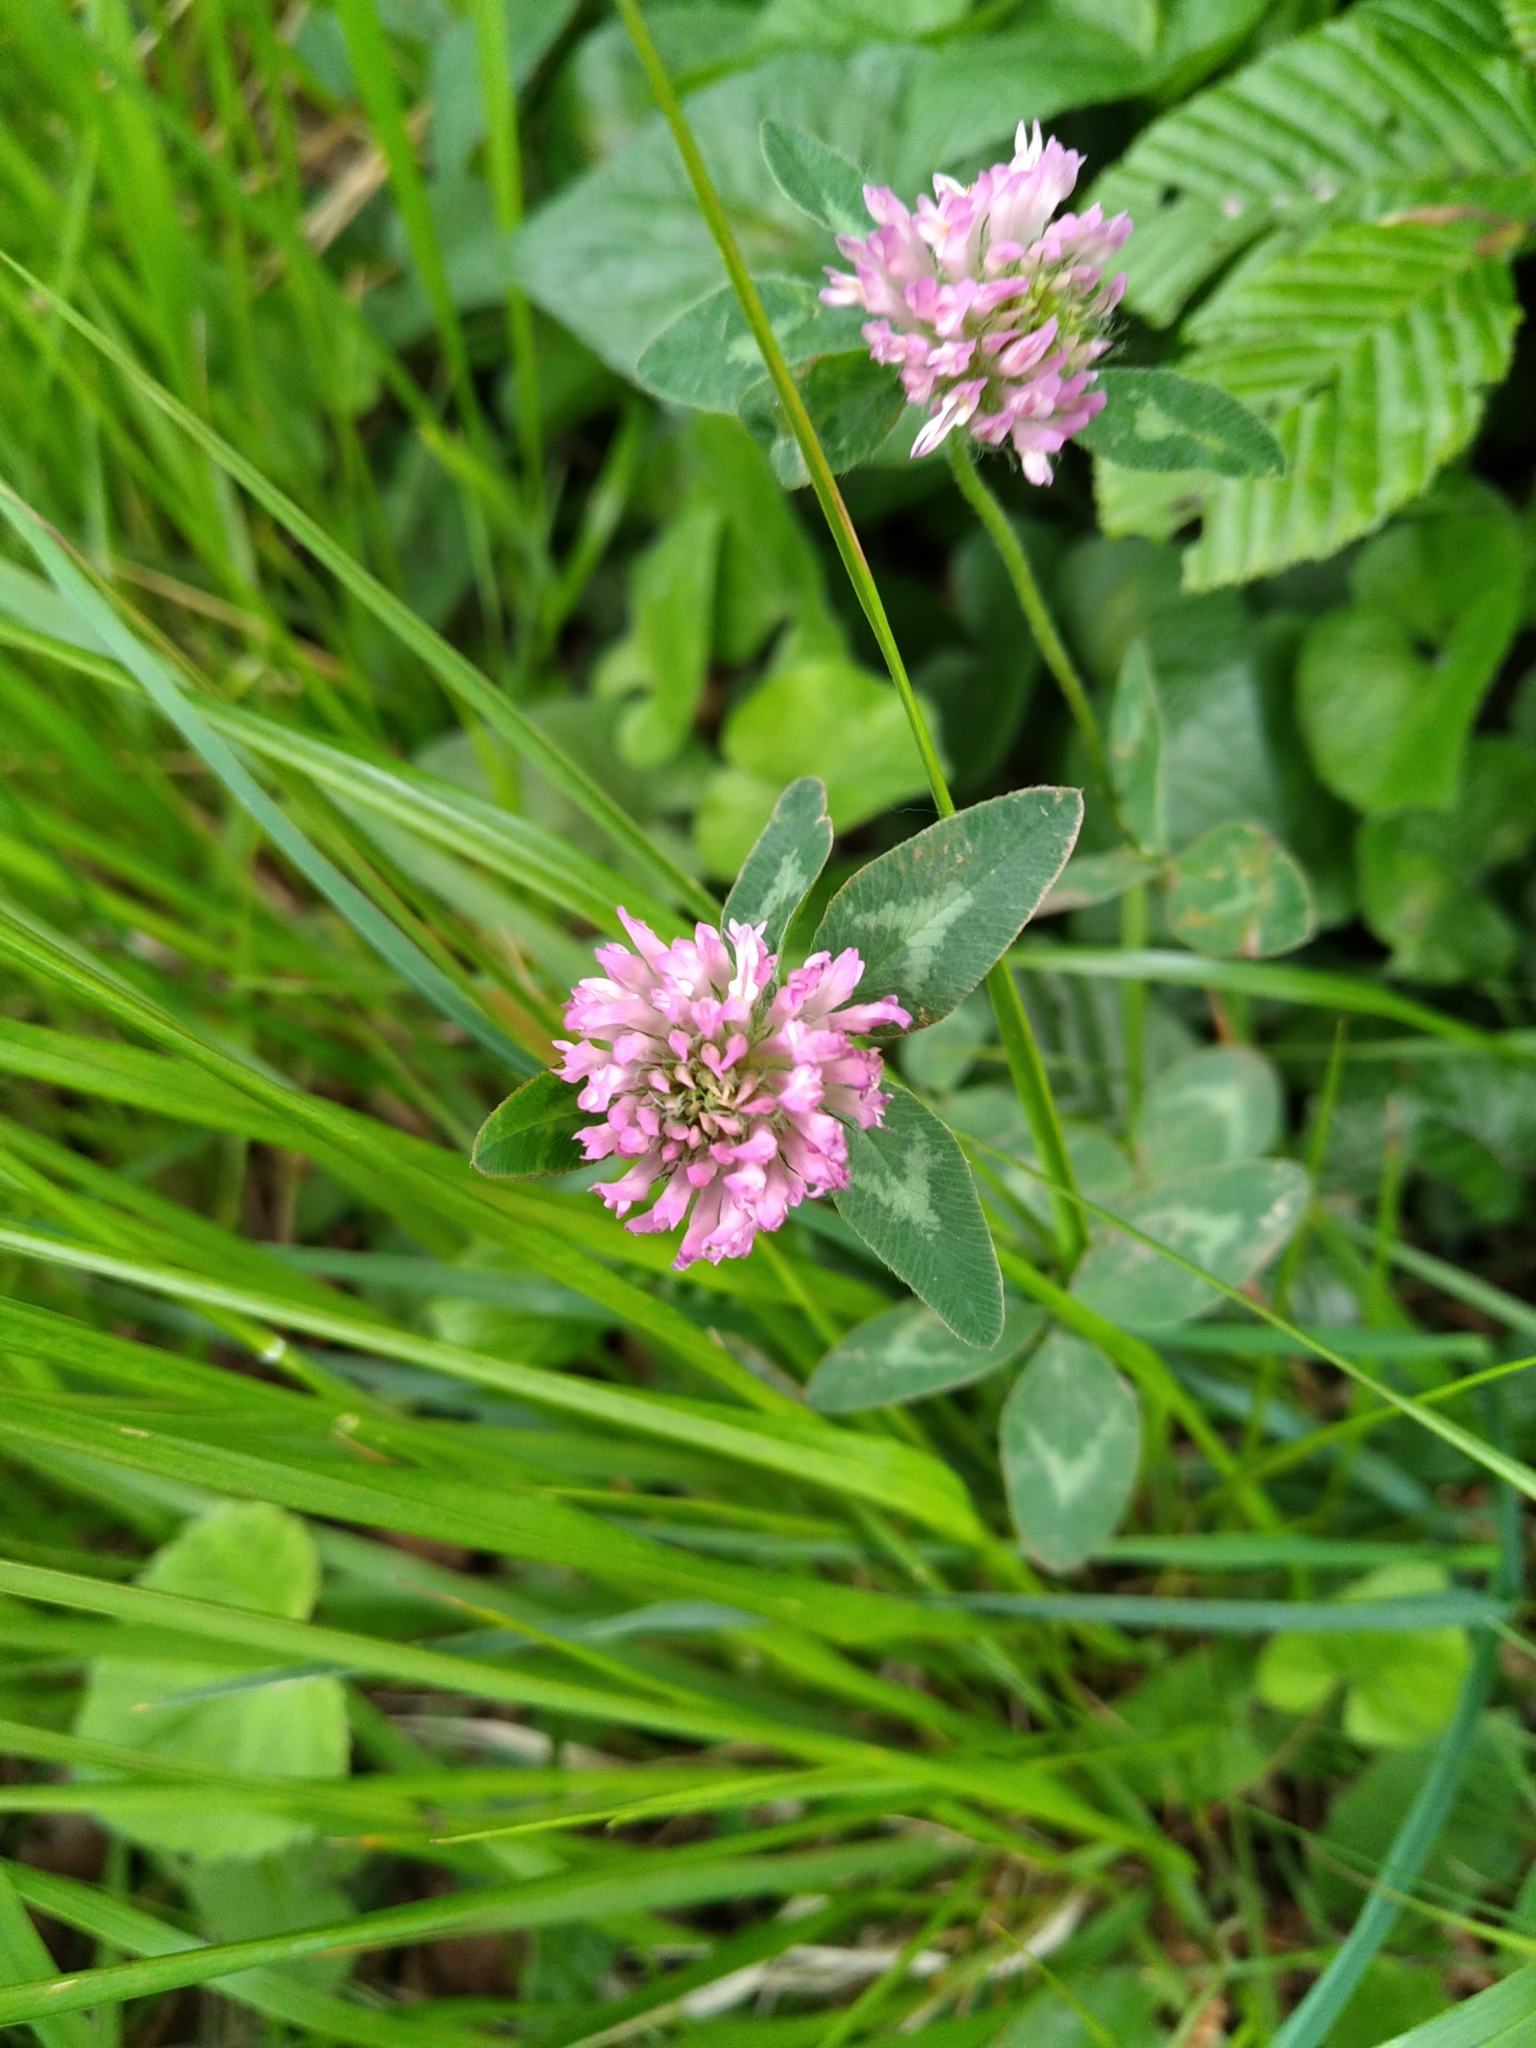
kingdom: Plantae
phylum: Tracheophyta
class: Magnoliopsida
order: Fabales
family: Fabaceae
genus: Trifolium
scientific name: Trifolium pratense
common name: Red clover
